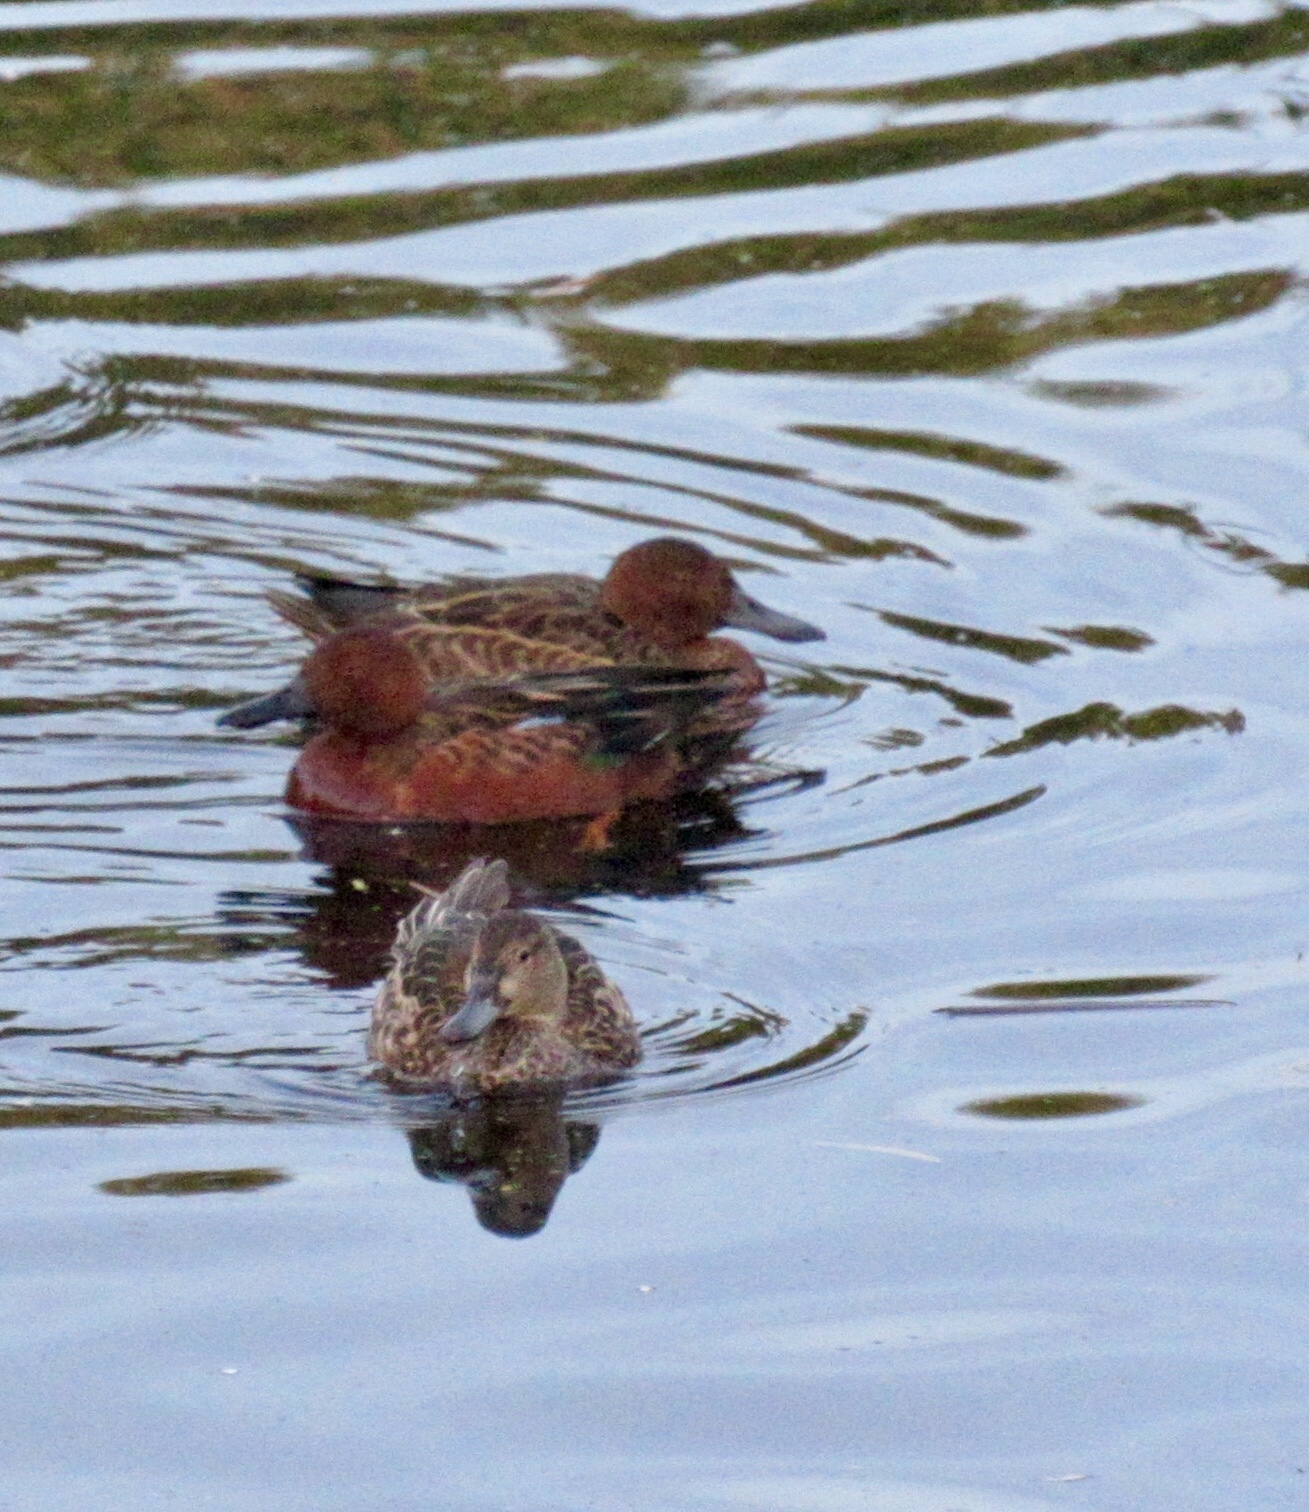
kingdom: Animalia
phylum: Chordata
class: Aves
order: Anseriformes
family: Anatidae
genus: Spatula
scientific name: Spatula cyanoptera
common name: Cinnamon teal
